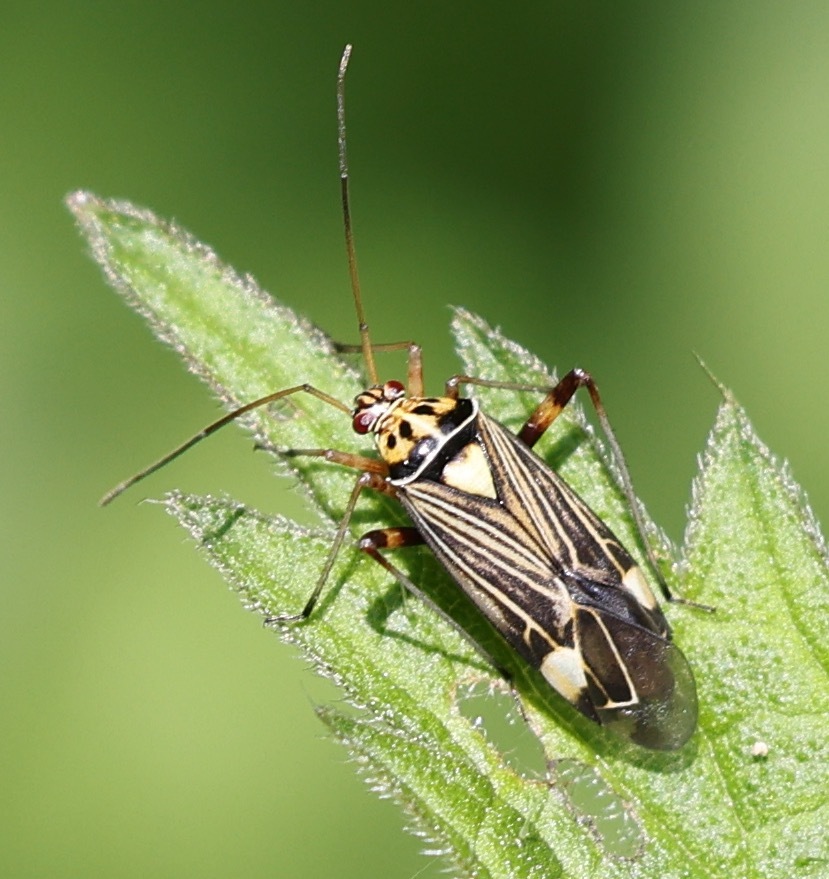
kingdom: Animalia
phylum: Arthropoda
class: Insecta
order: Hemiptera
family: Miridae
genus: Rhabdomiris
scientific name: Rhabdomiris striatellus
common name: Plant bug
